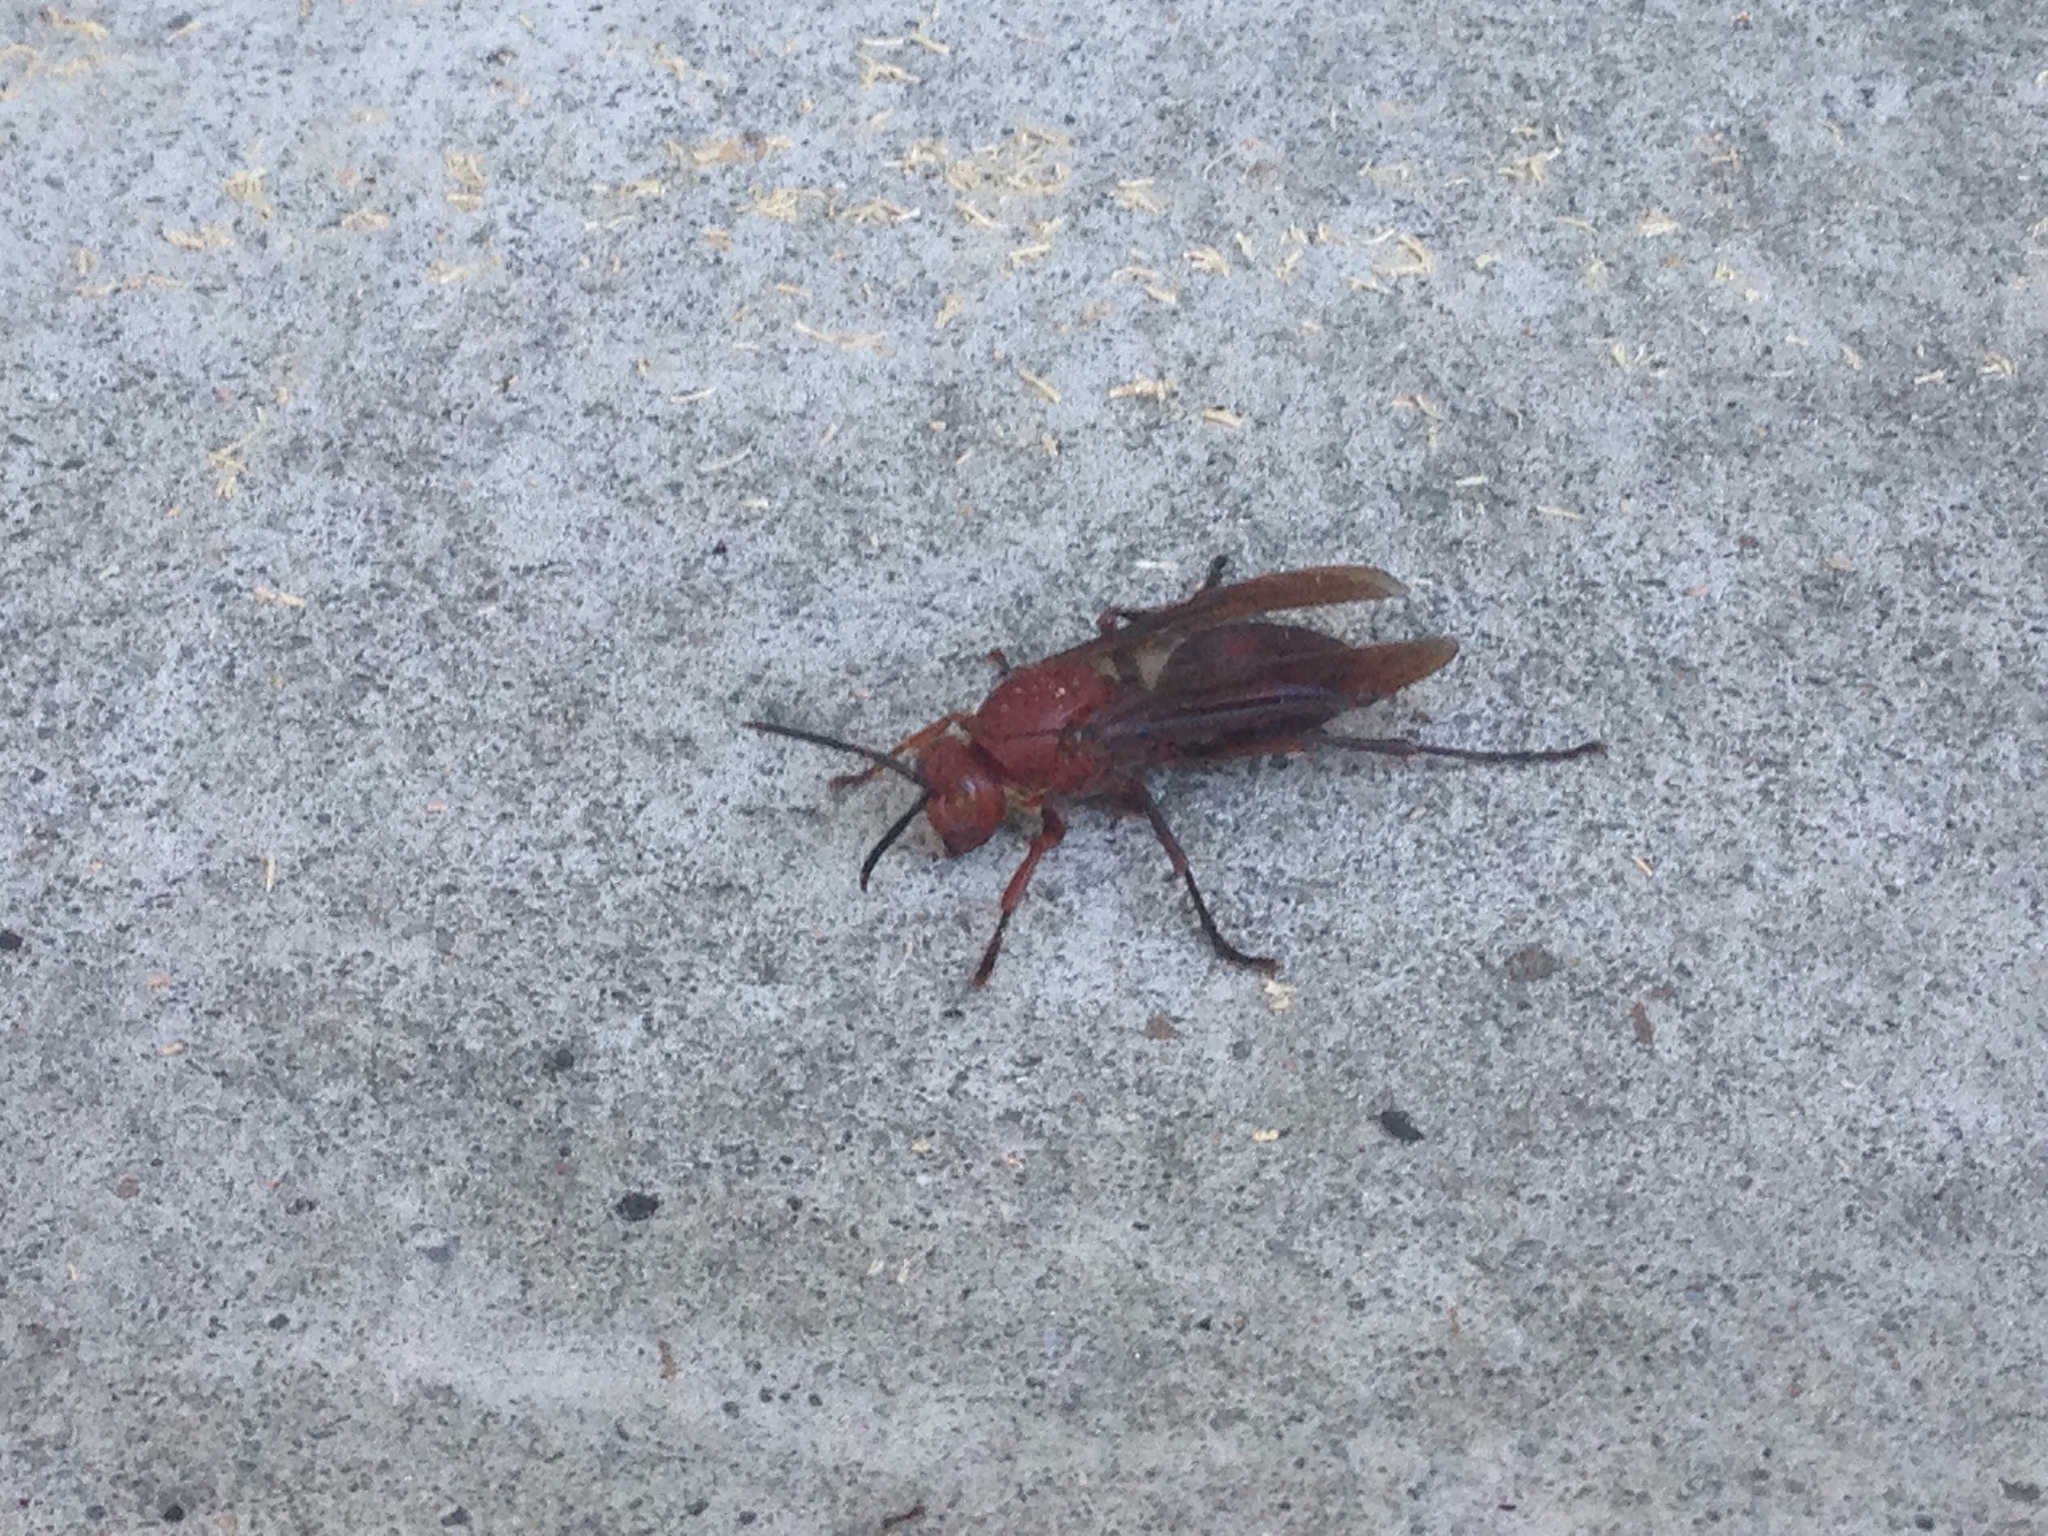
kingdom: Animalia
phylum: Arthropoda
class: Insecta
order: Hymenoptera
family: Eumenidae
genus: Polistes
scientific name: Polistes gigas
